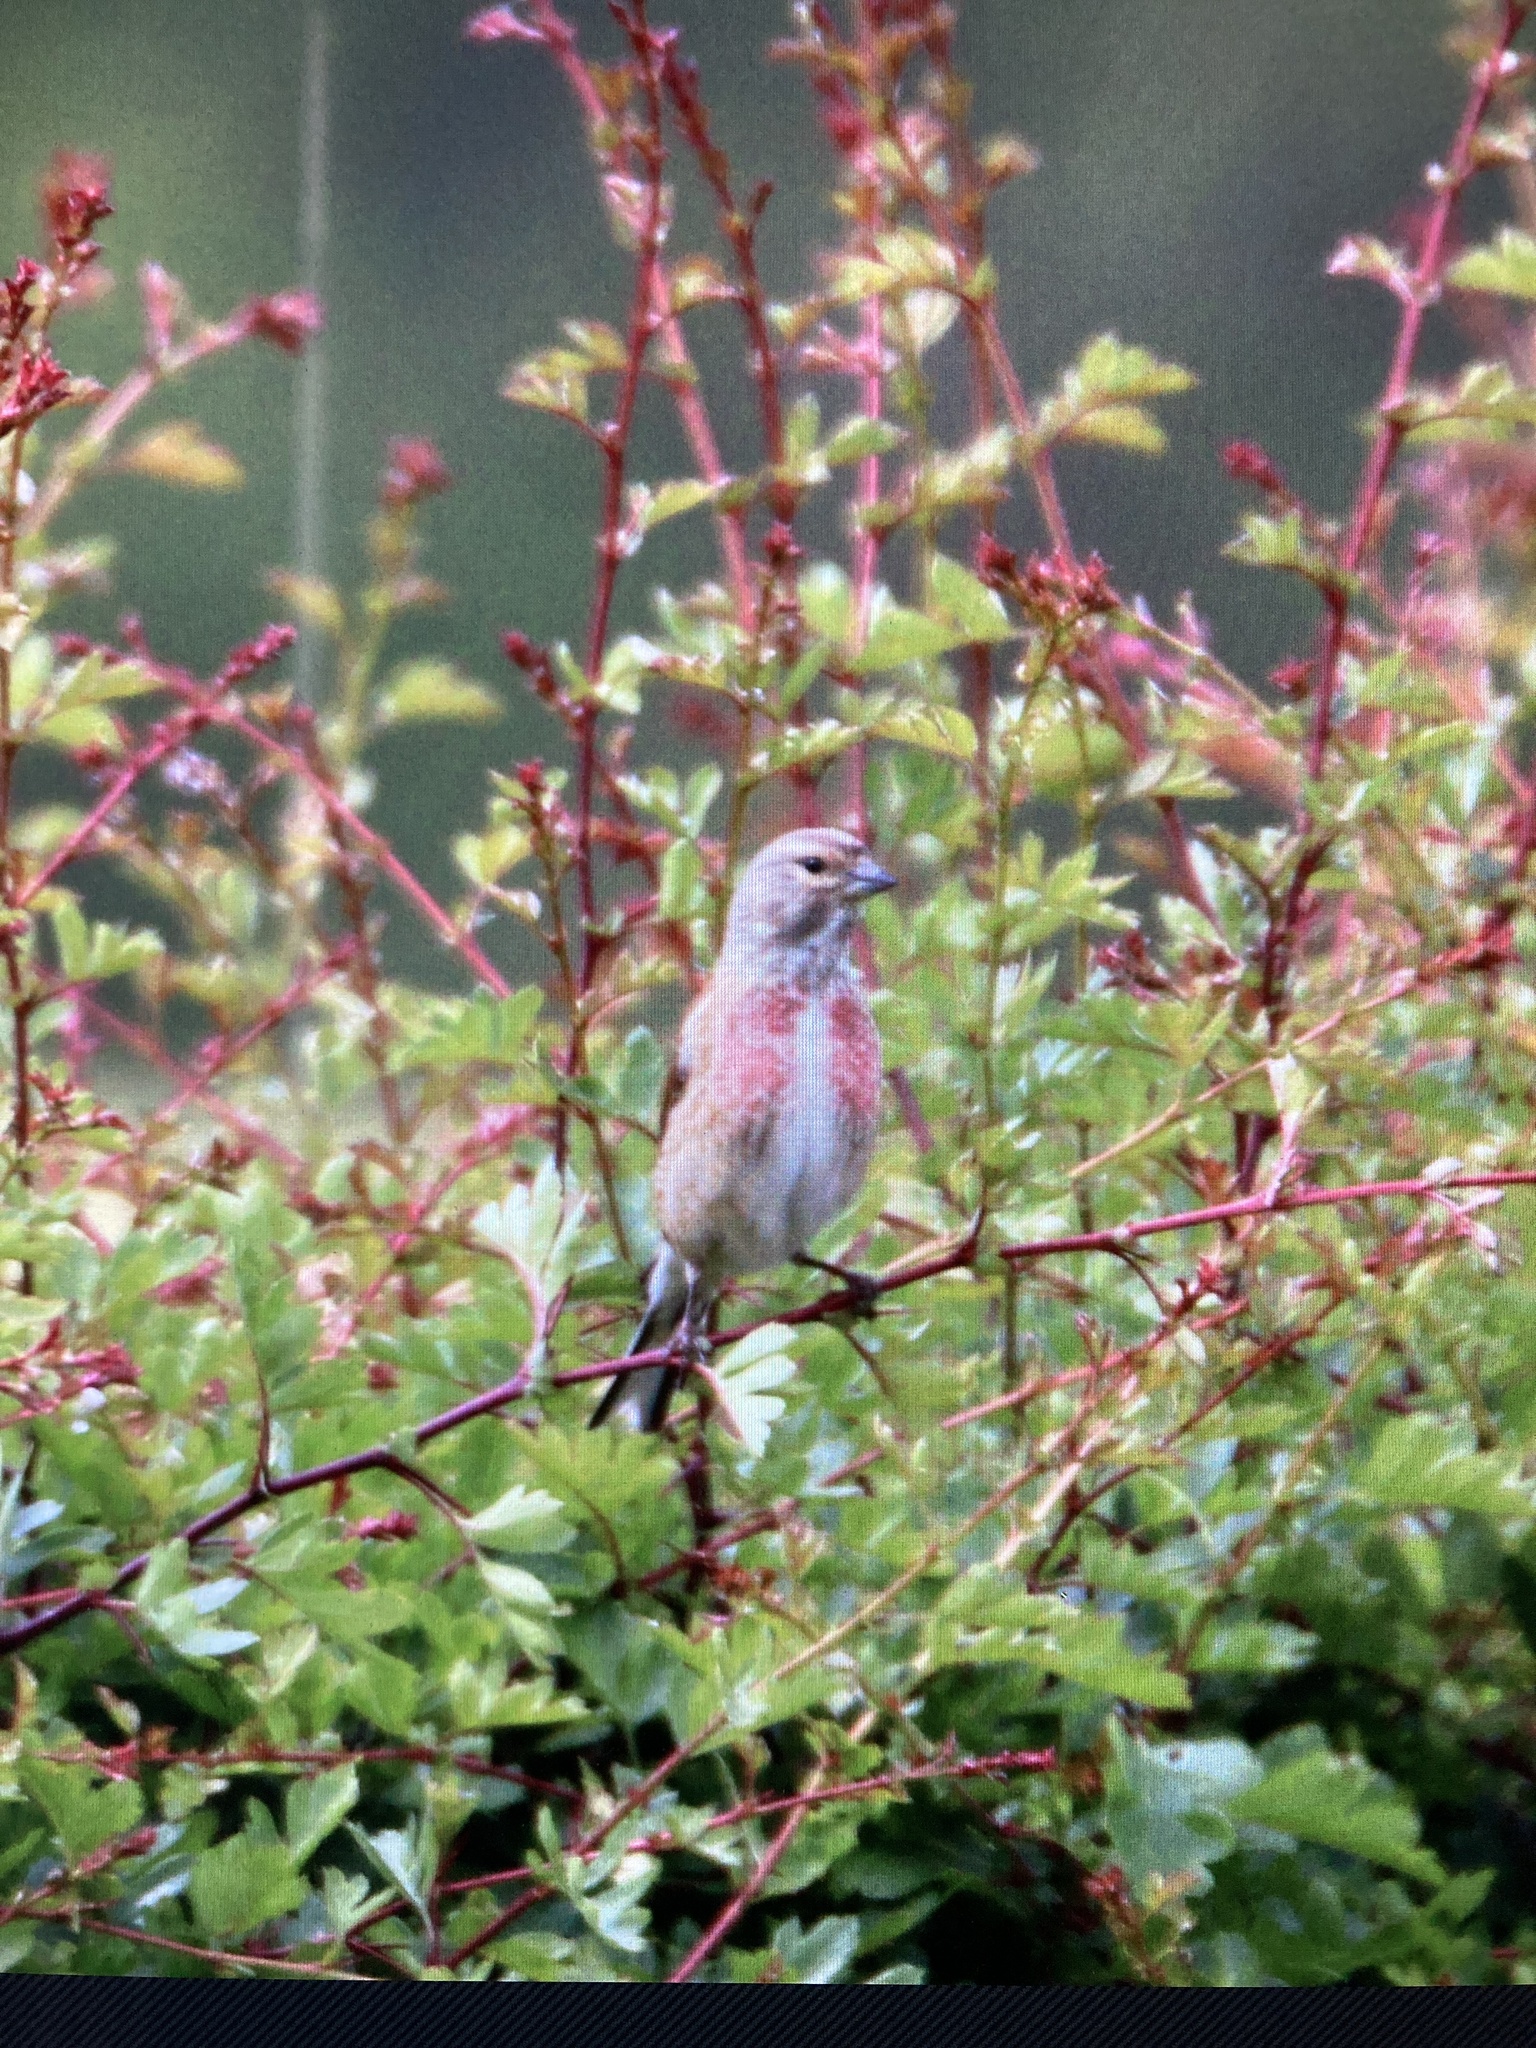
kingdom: Animalia
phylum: Chordata
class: Aves
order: Passeriformes
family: Fringillidae
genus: Linaria
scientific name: Linaria cannabina
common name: Common linnet
